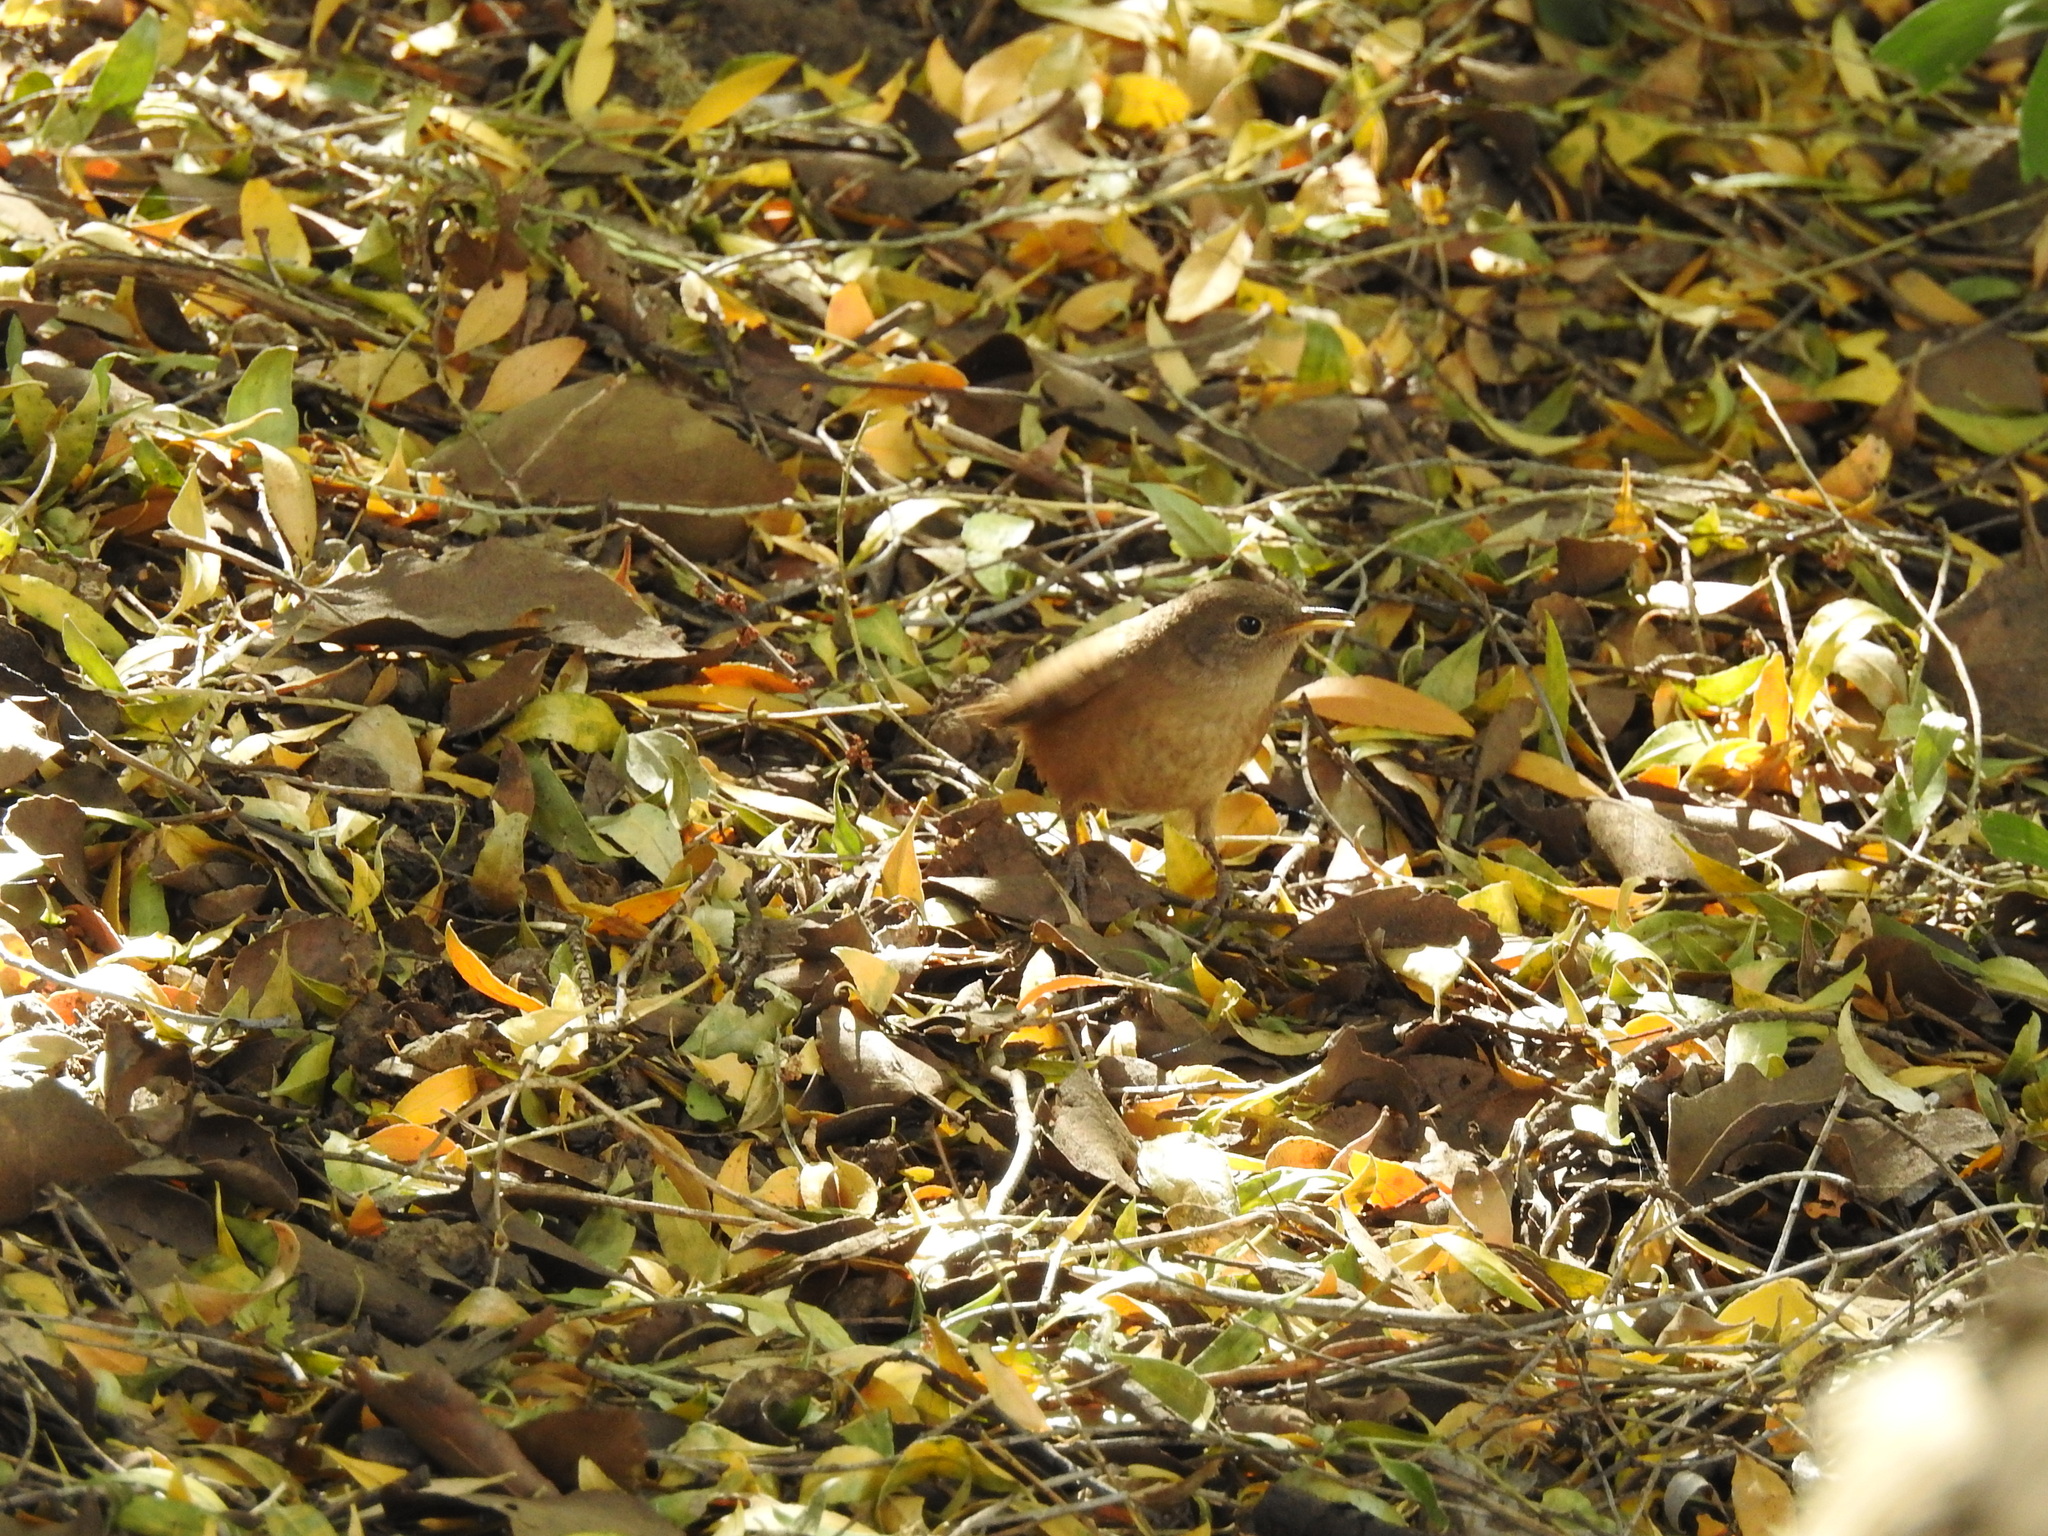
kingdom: Animalia
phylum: Chordata
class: Aves
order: Passeriformes
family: Troglodytidae
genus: Troglodytes
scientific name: Troglodytes aedon
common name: House wren
